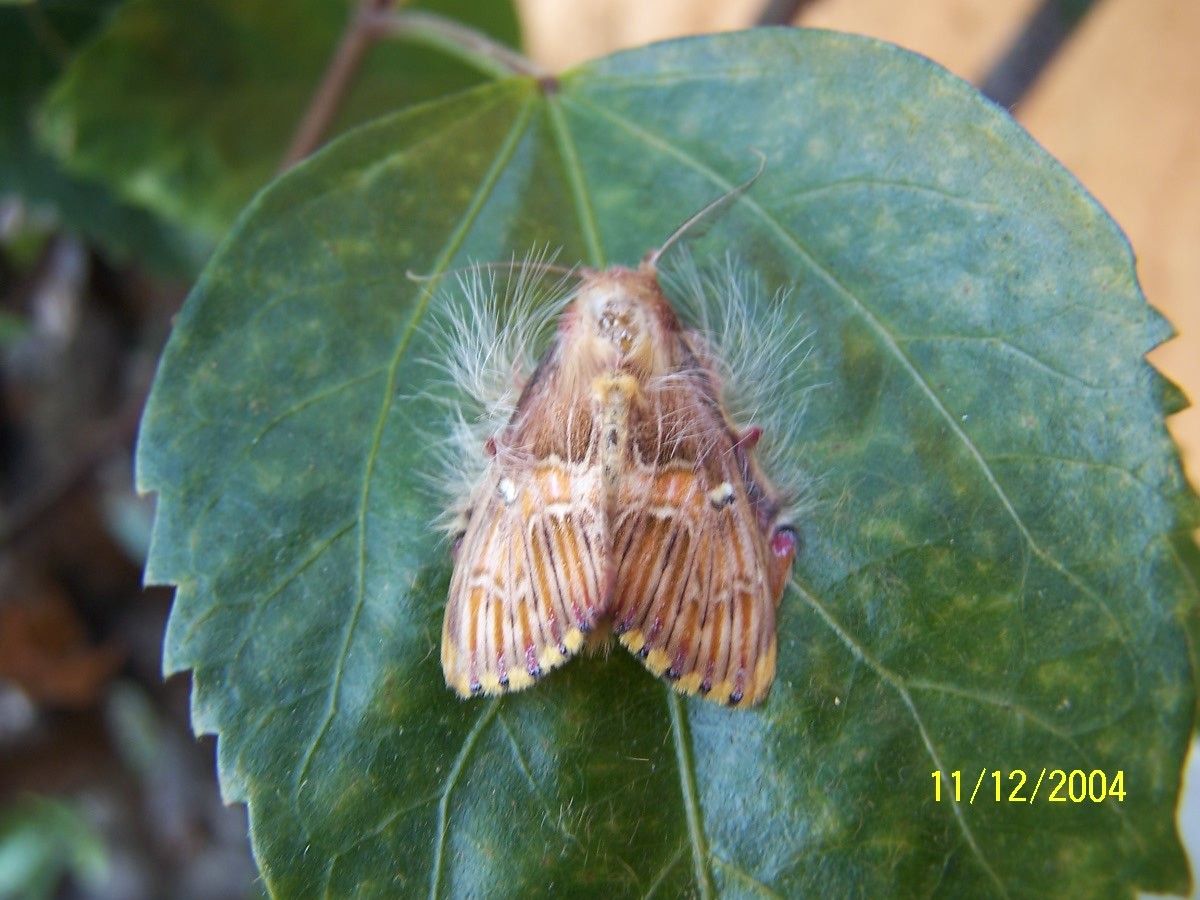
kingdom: Animalia
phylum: Arthropoda
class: Insecta
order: Lepidoptera
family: Erebidae
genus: Sosxetra
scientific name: Sosxetra grata
